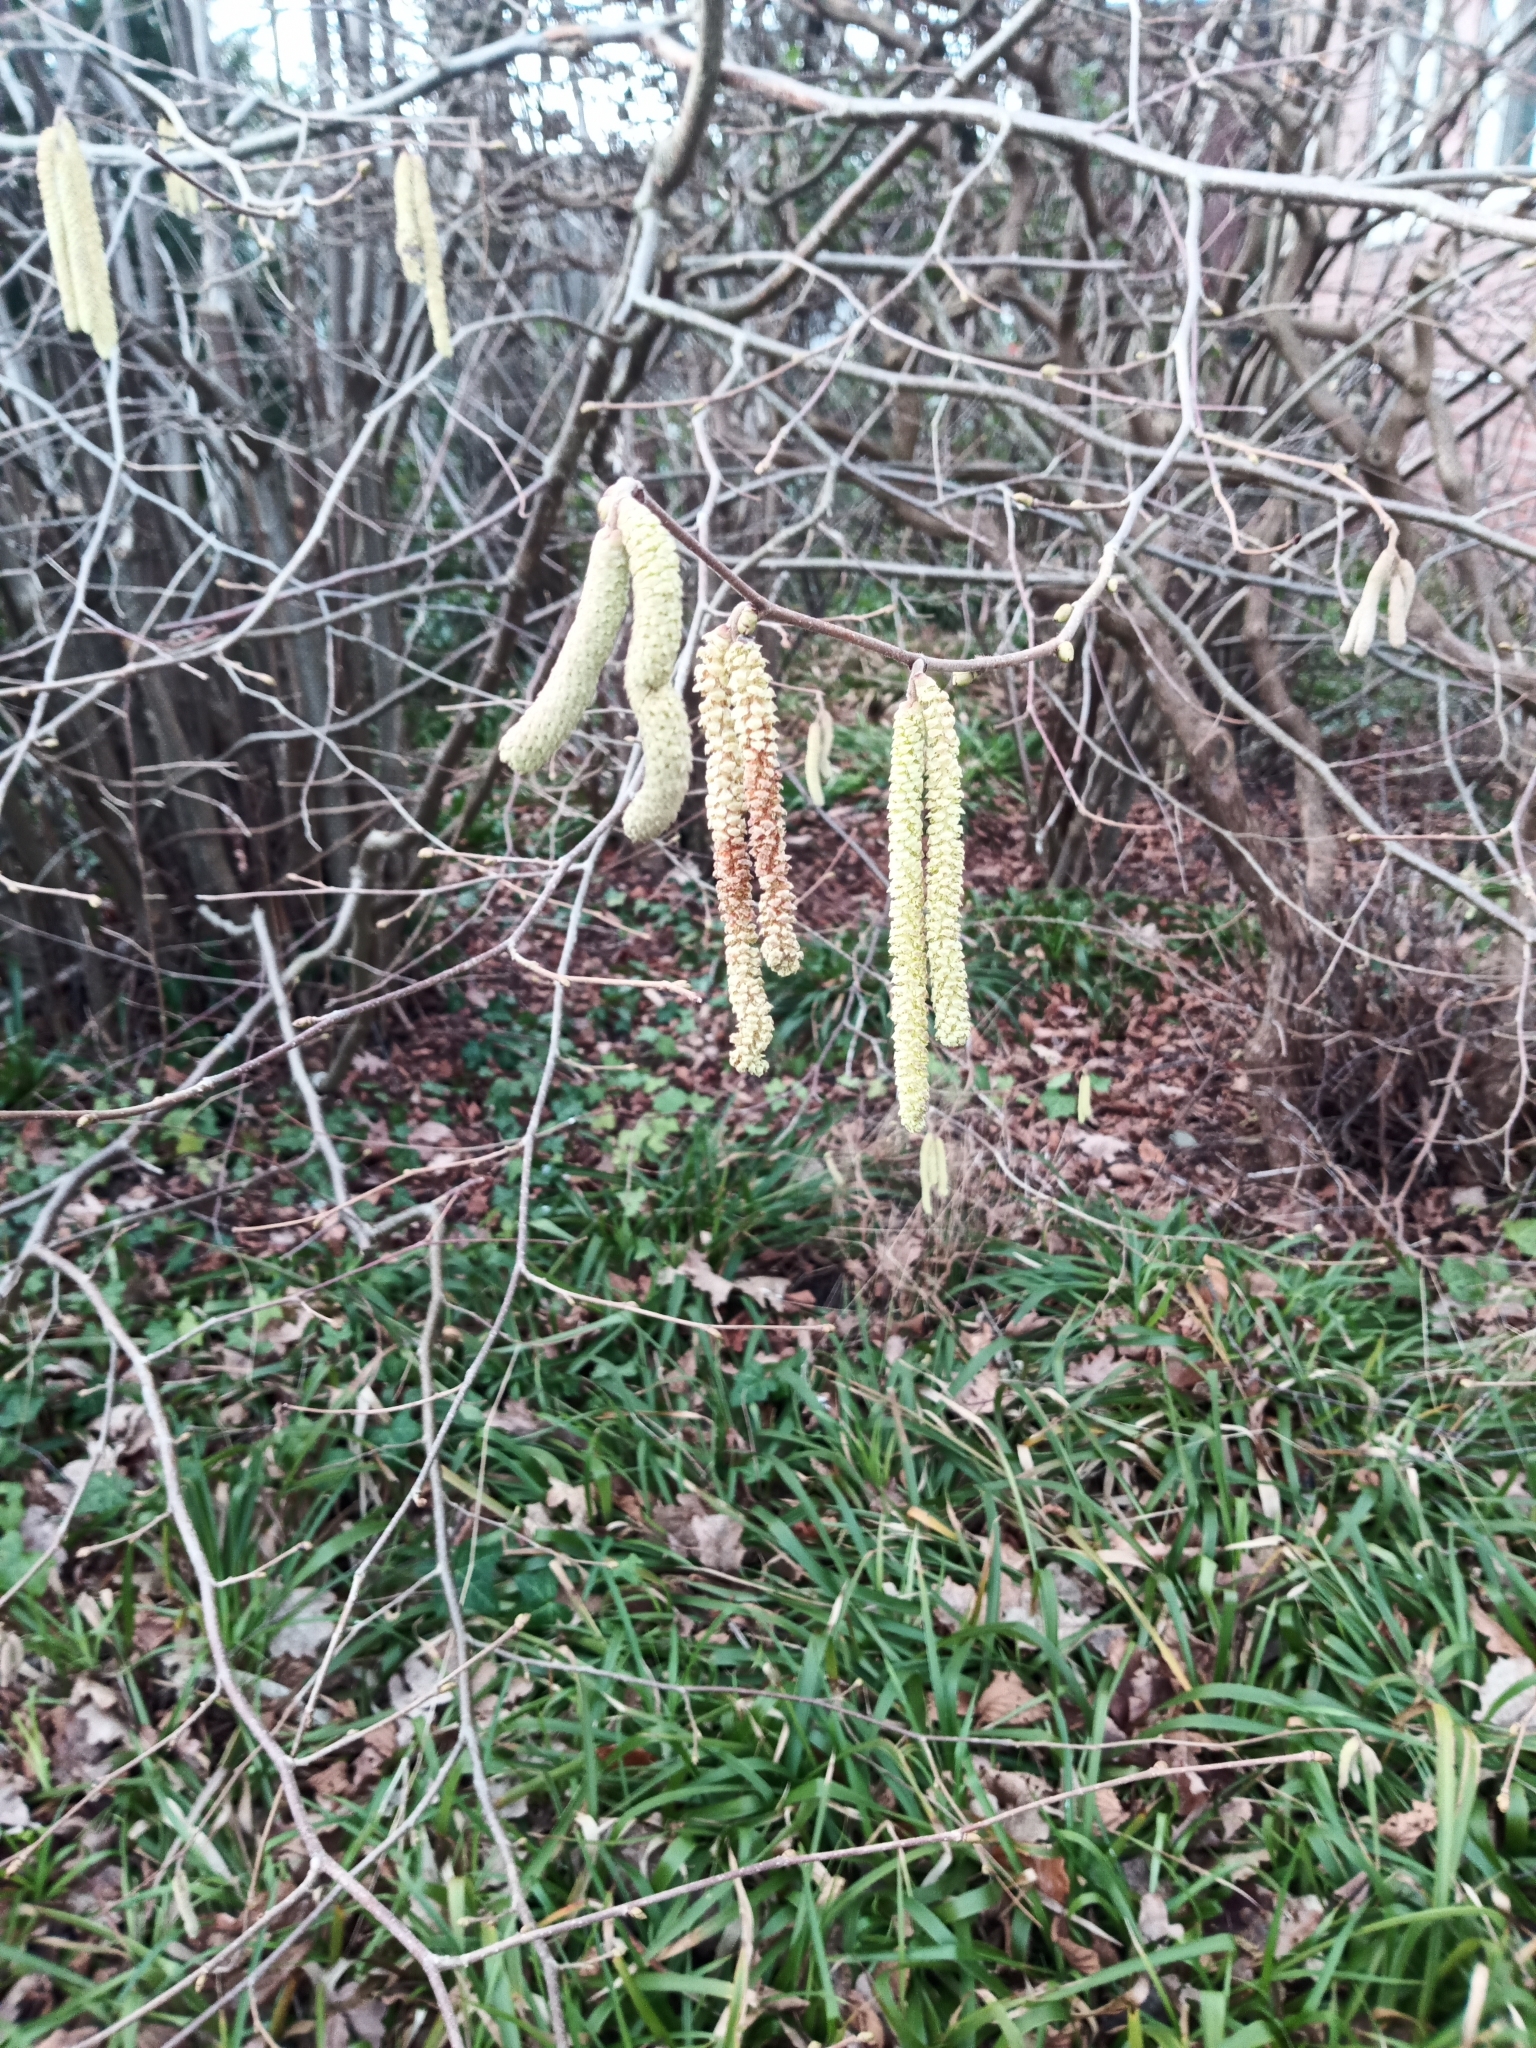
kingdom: Plantae
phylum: Tracheophyta
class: Magnoliopsida
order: Fagales
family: Betulaceae
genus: Corylus
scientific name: Corylus avellana
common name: European hazel
